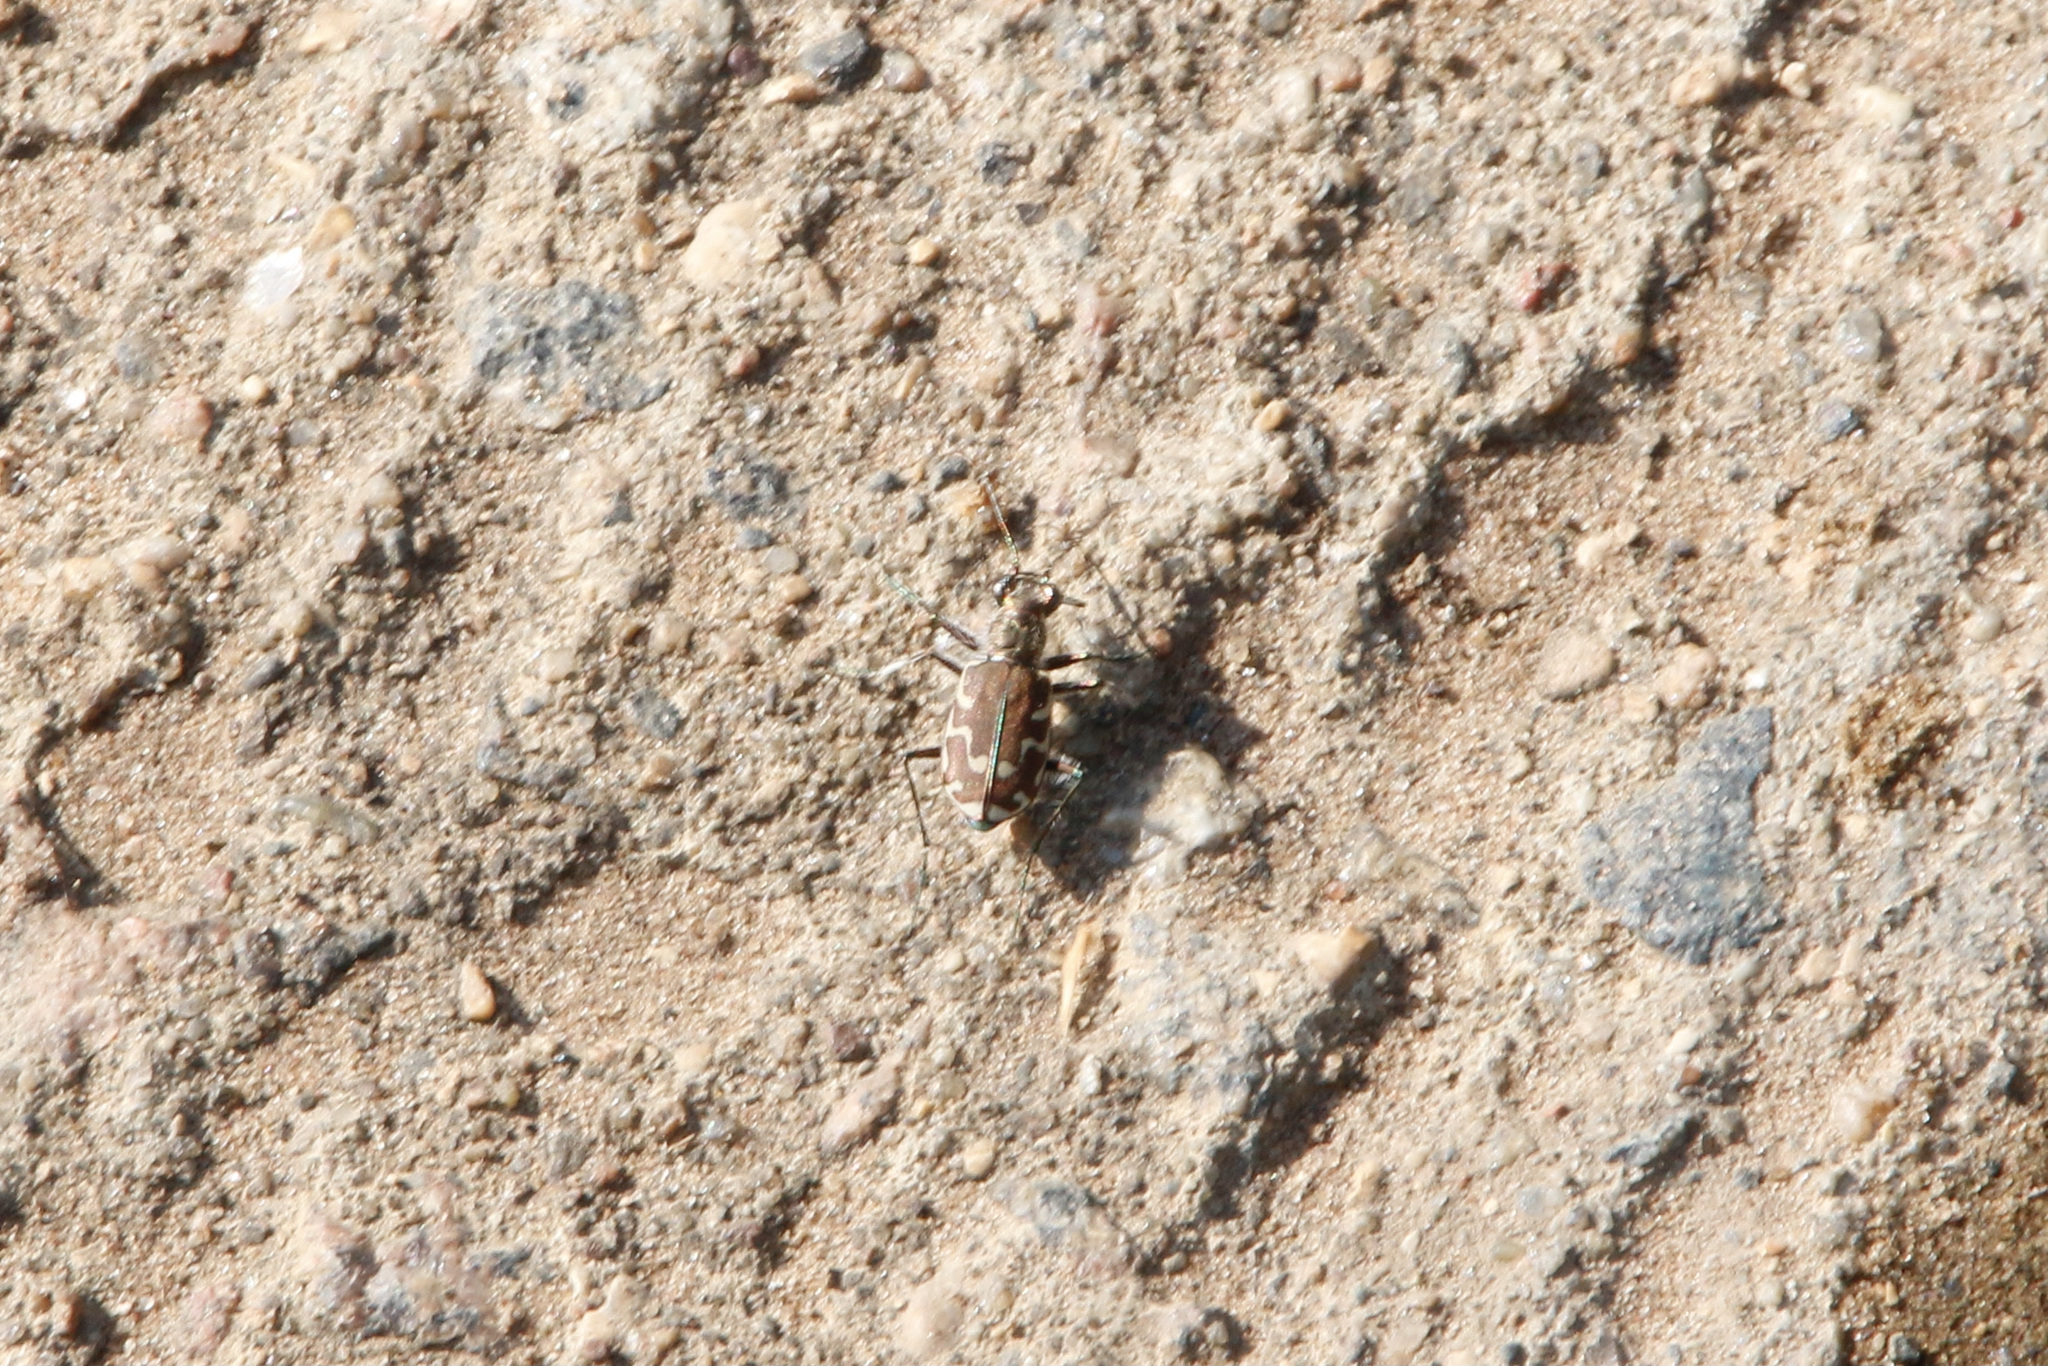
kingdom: Animalia
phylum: Arthropoda
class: Insecta
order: Coleoptera
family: Carabidae
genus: Cicindela
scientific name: Cicindela repanda
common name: Bronzed tiger beetle
